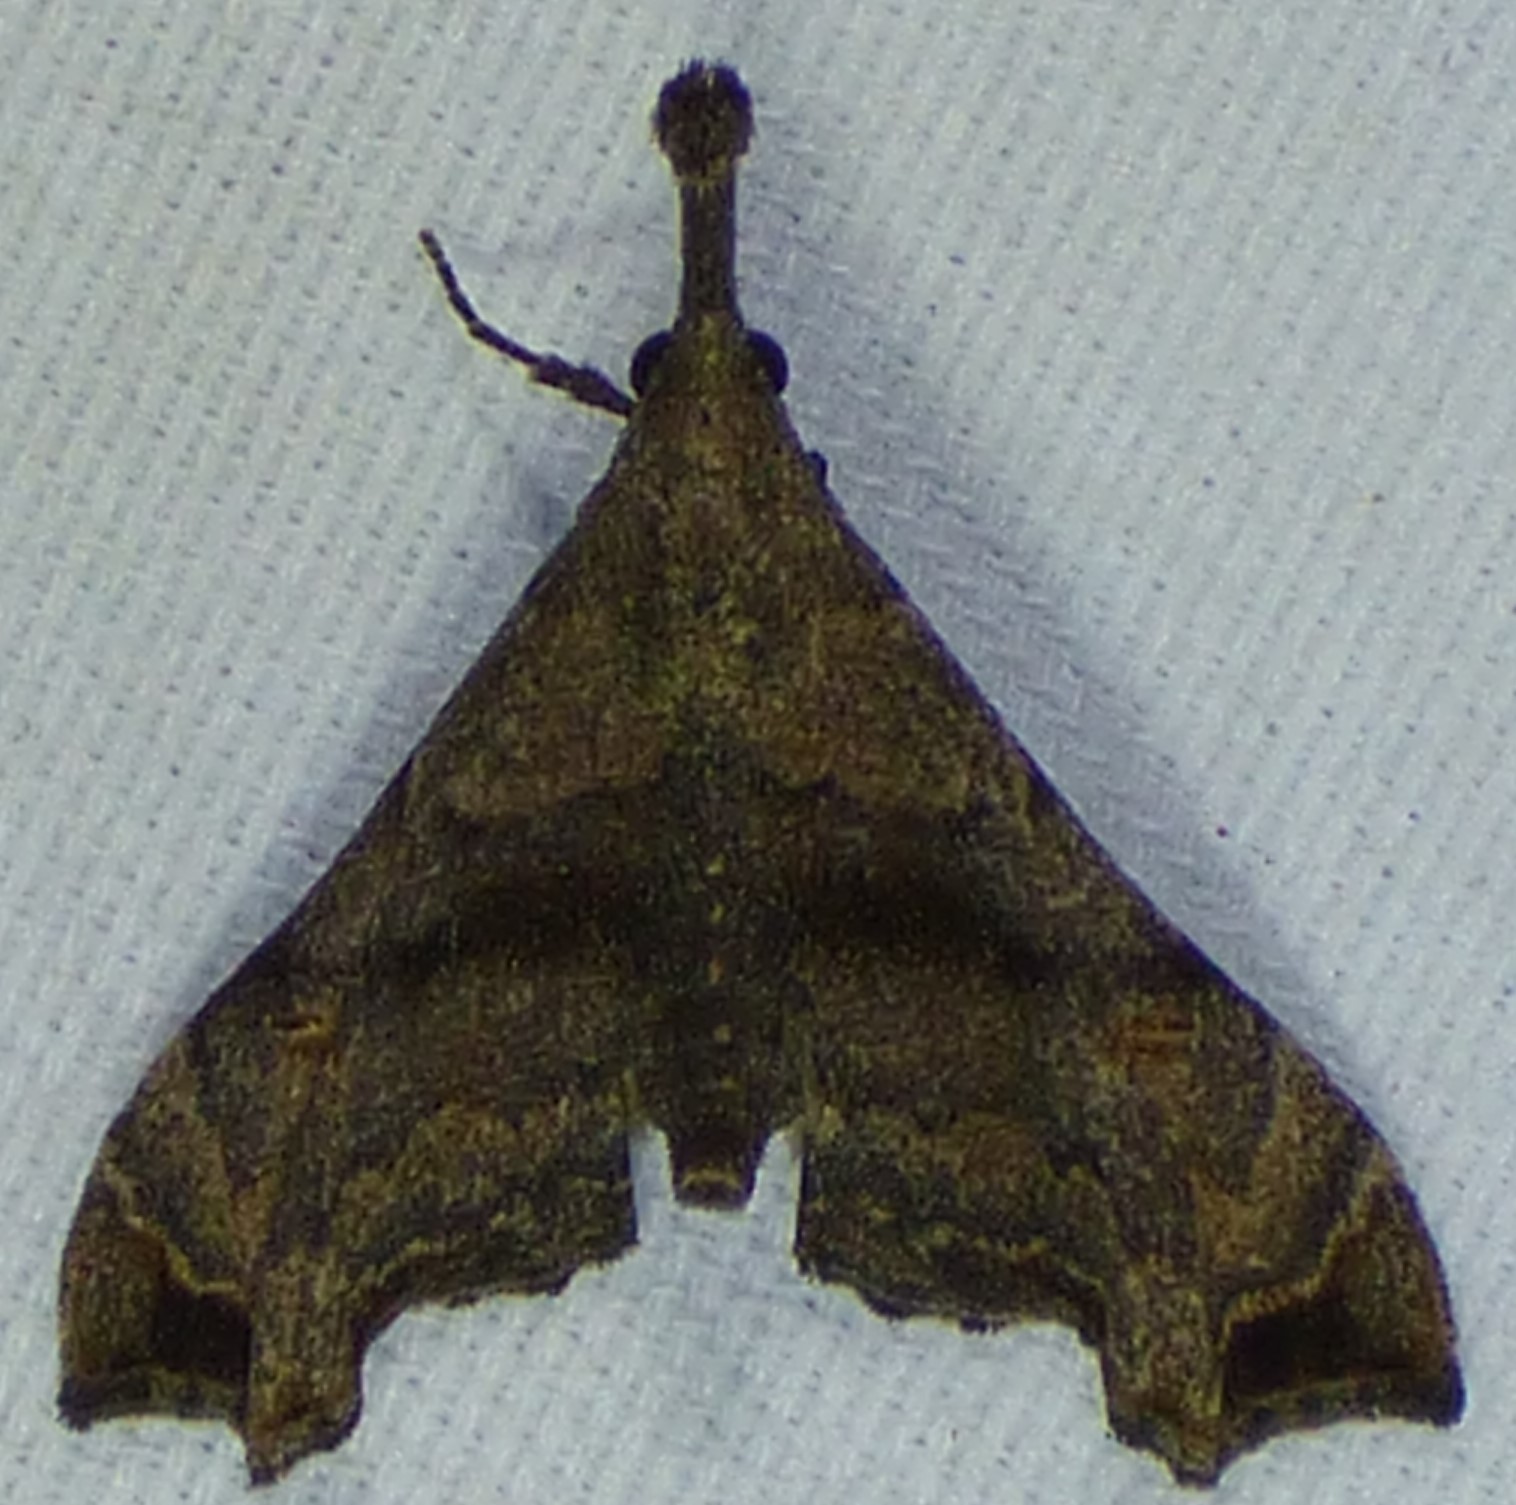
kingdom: Animalia
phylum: Arthropoda
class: Insecta
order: Lepidoptera
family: Erebidae
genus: Palthis
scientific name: Palthis asopialis
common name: Faint-spotted palthis moth
